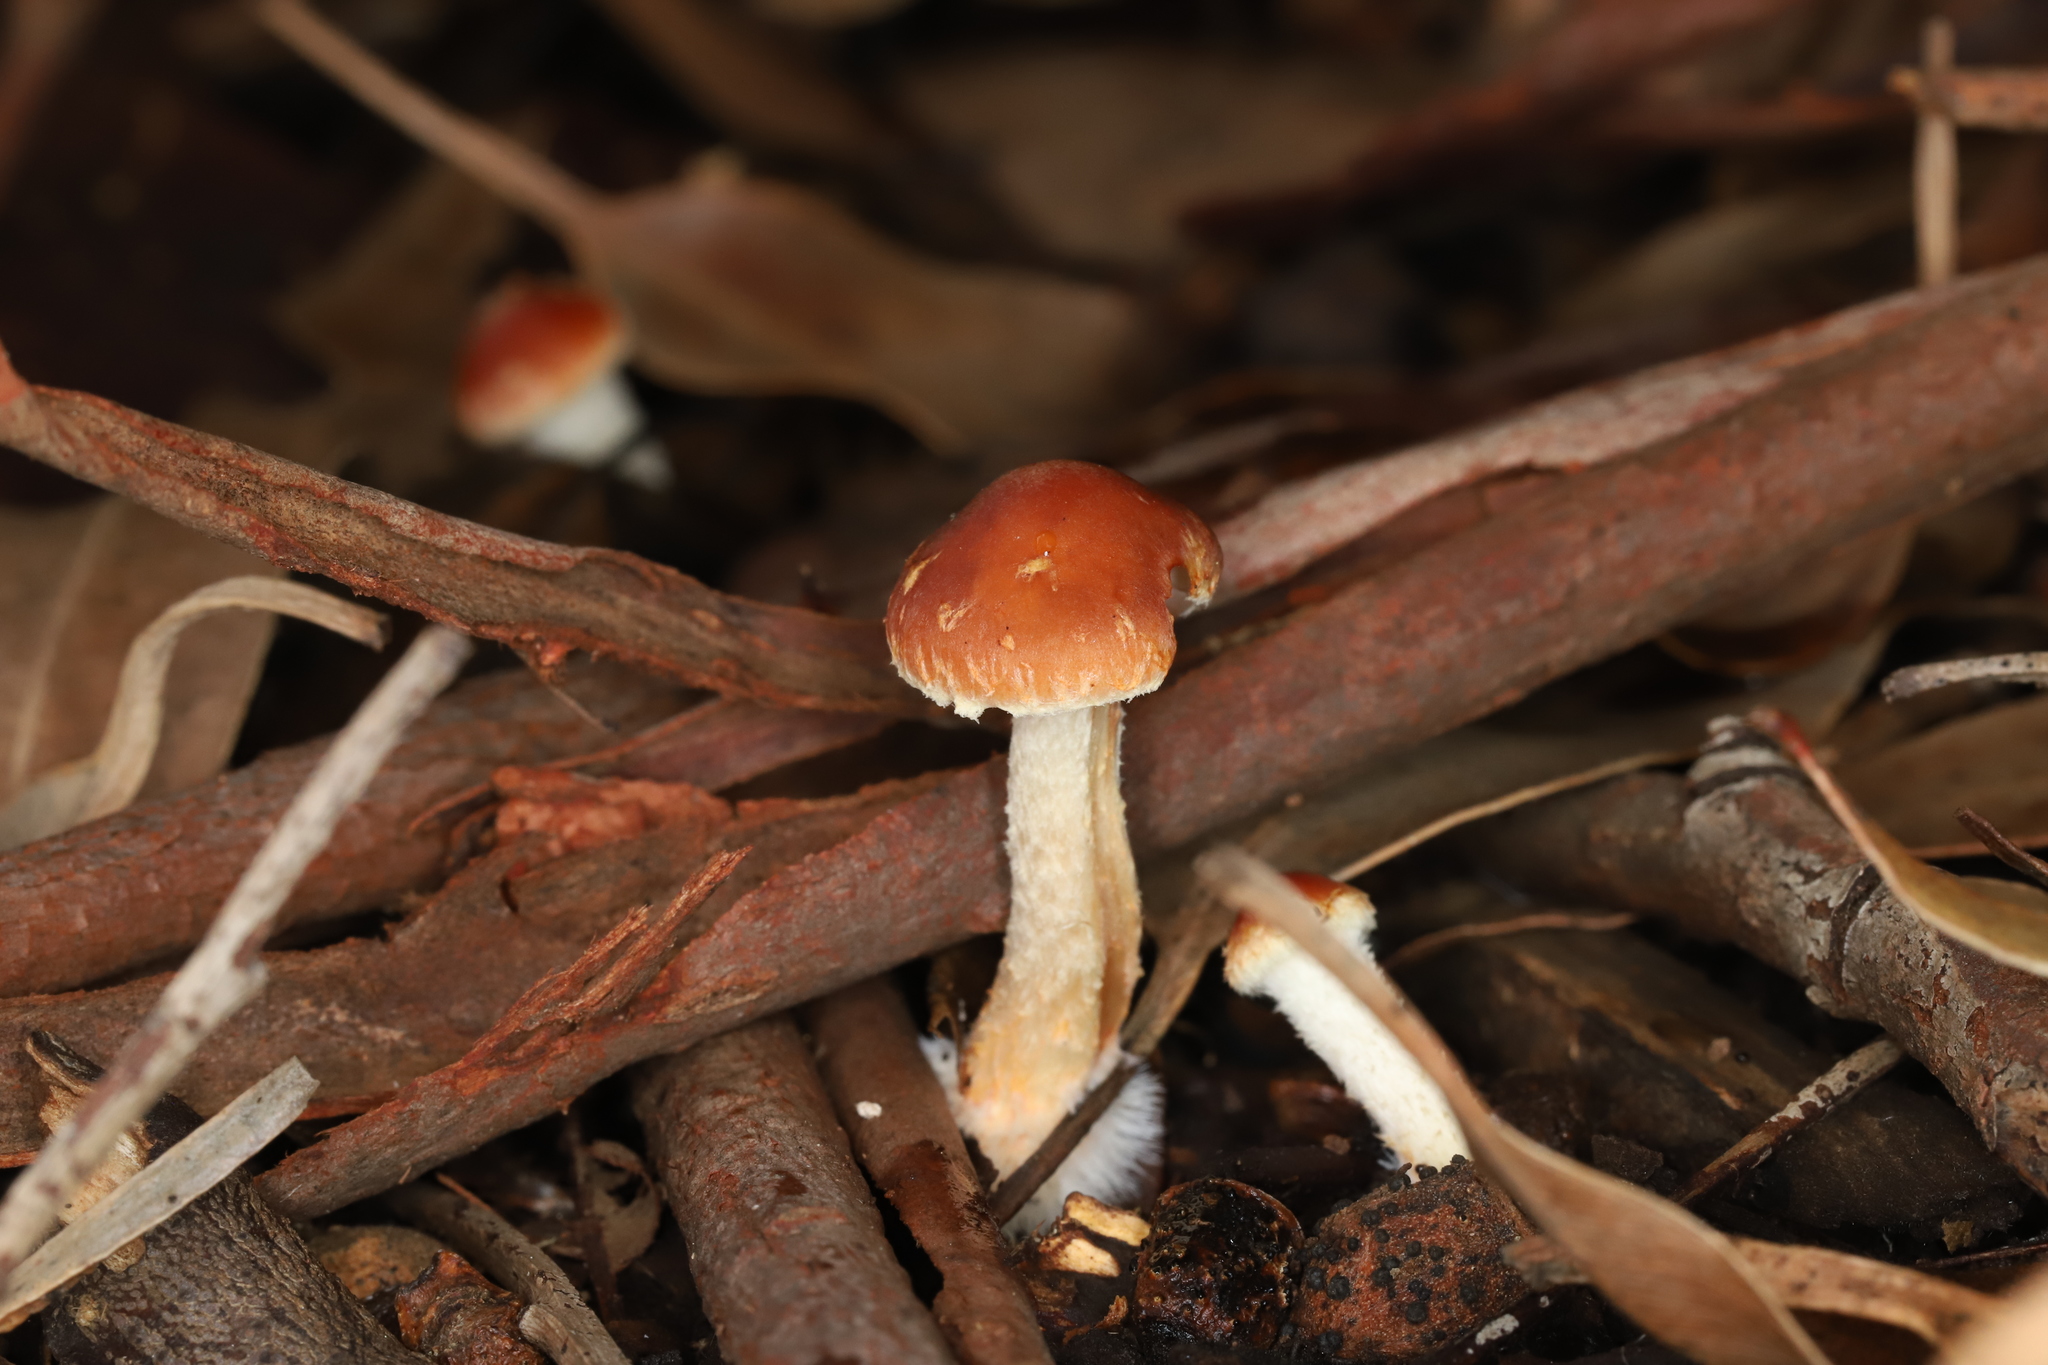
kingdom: Fungi
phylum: Basidiomycota
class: Agaricomycetes
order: Agaricales
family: Strophariaceae
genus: Leratiomyces
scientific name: Leratiomyces ceres
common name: Redlead roundhead
